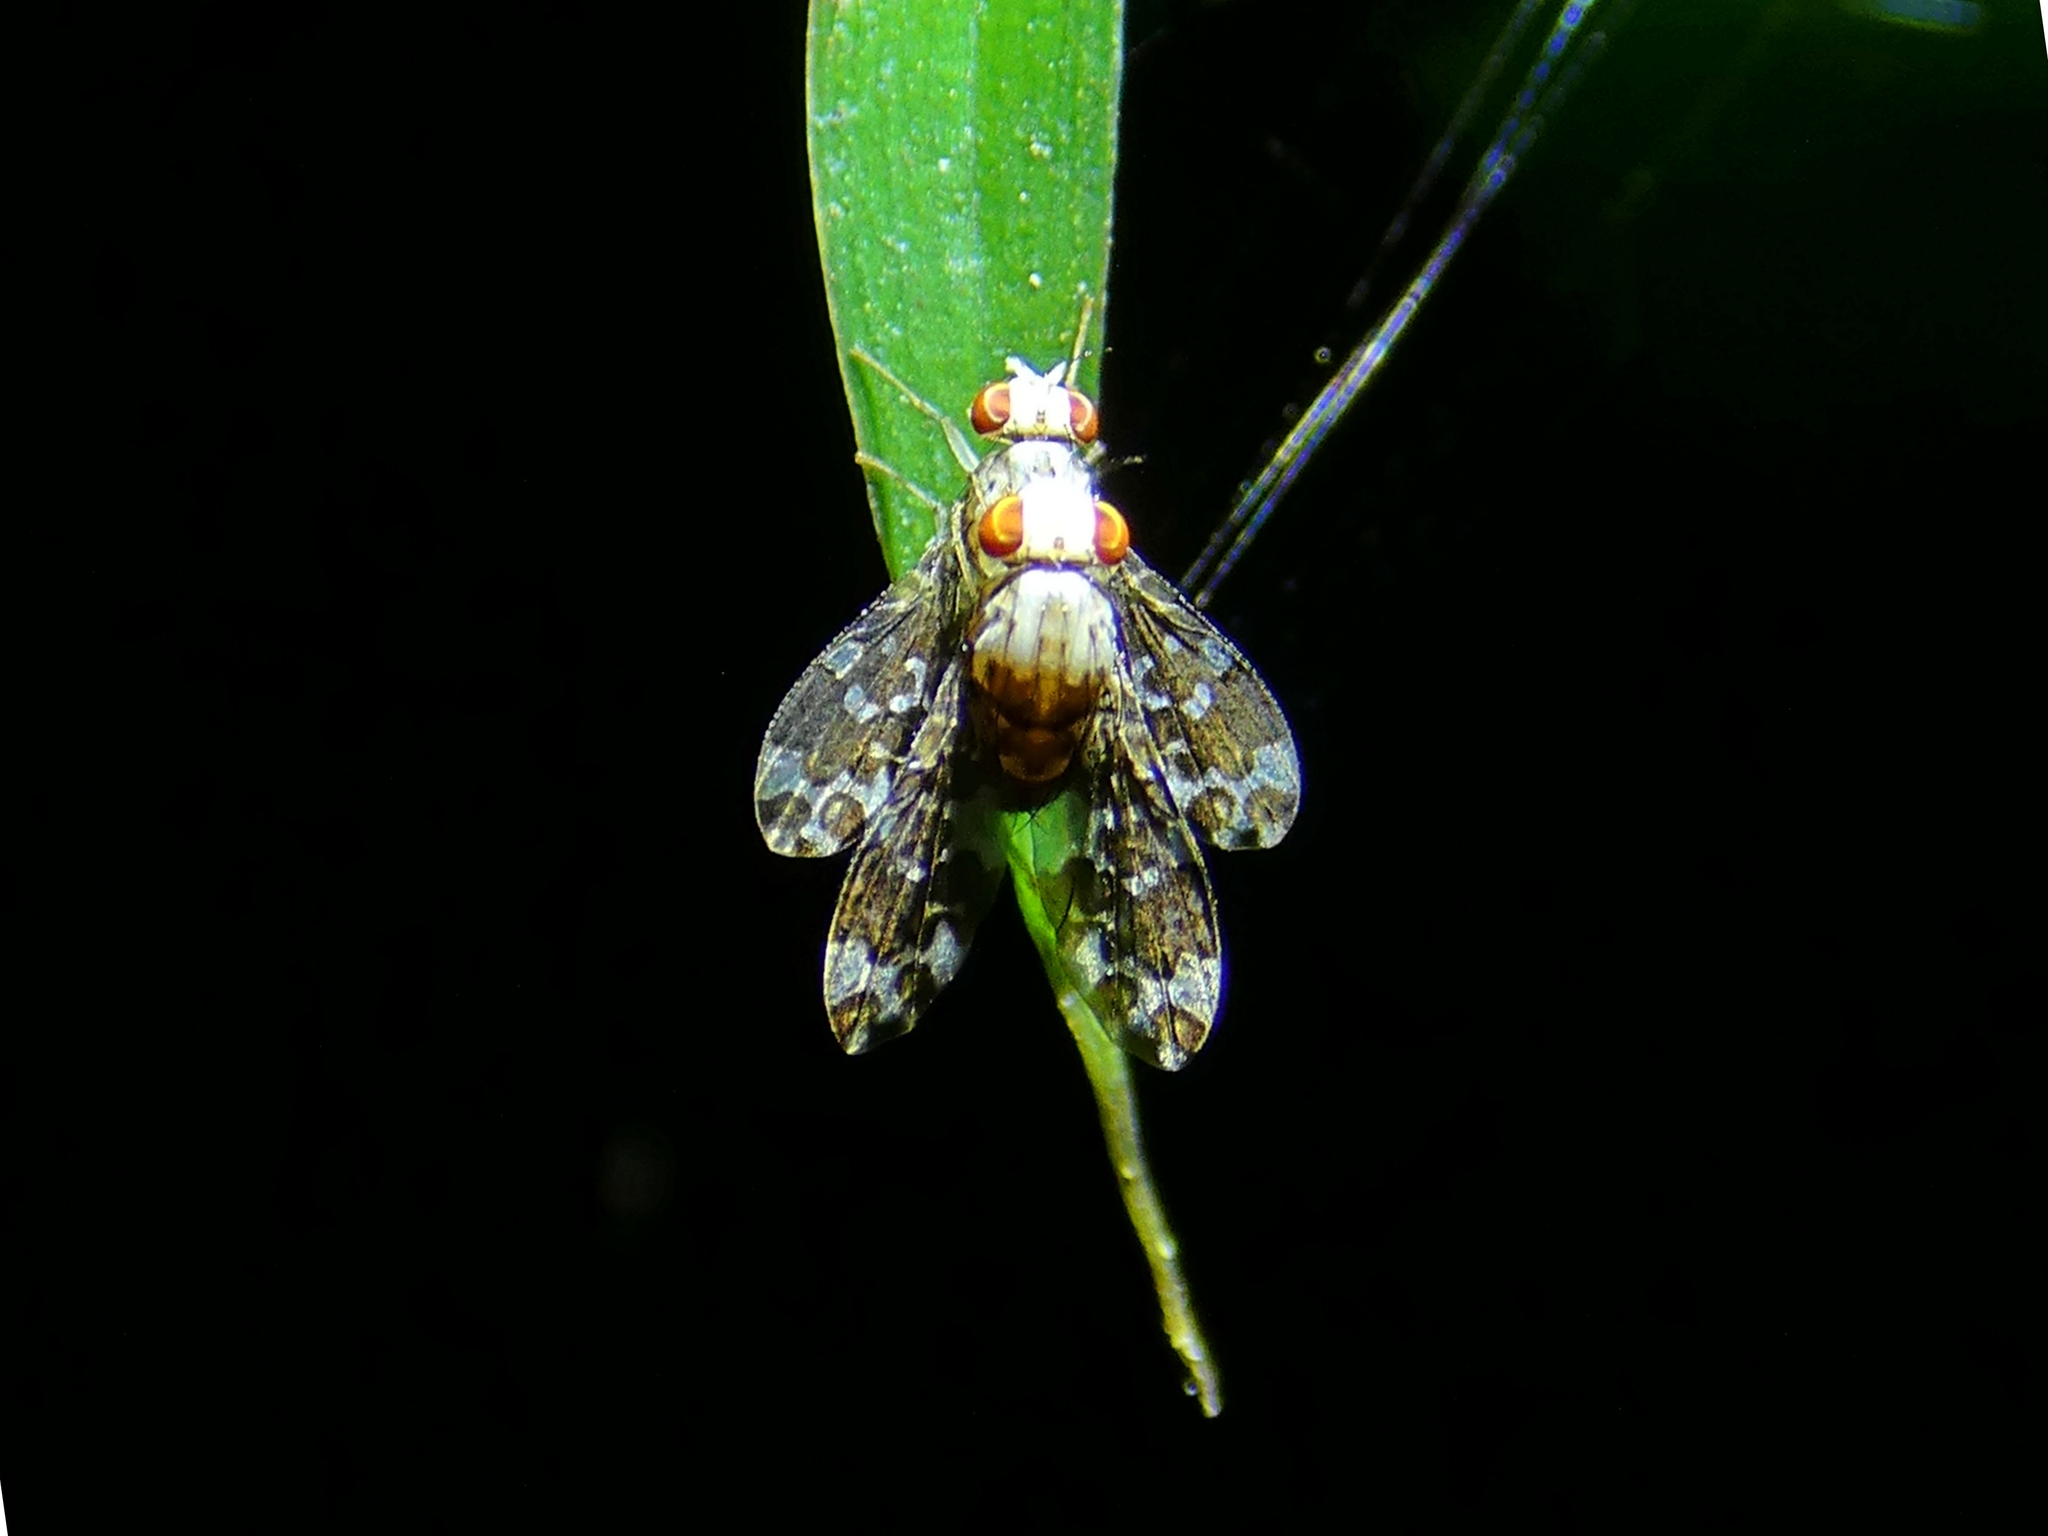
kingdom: Animalia
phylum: Arthropoda
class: Insecta
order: Diptera
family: Lauxaniidae
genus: Mettinia
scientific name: Mettinia suboceliifera
